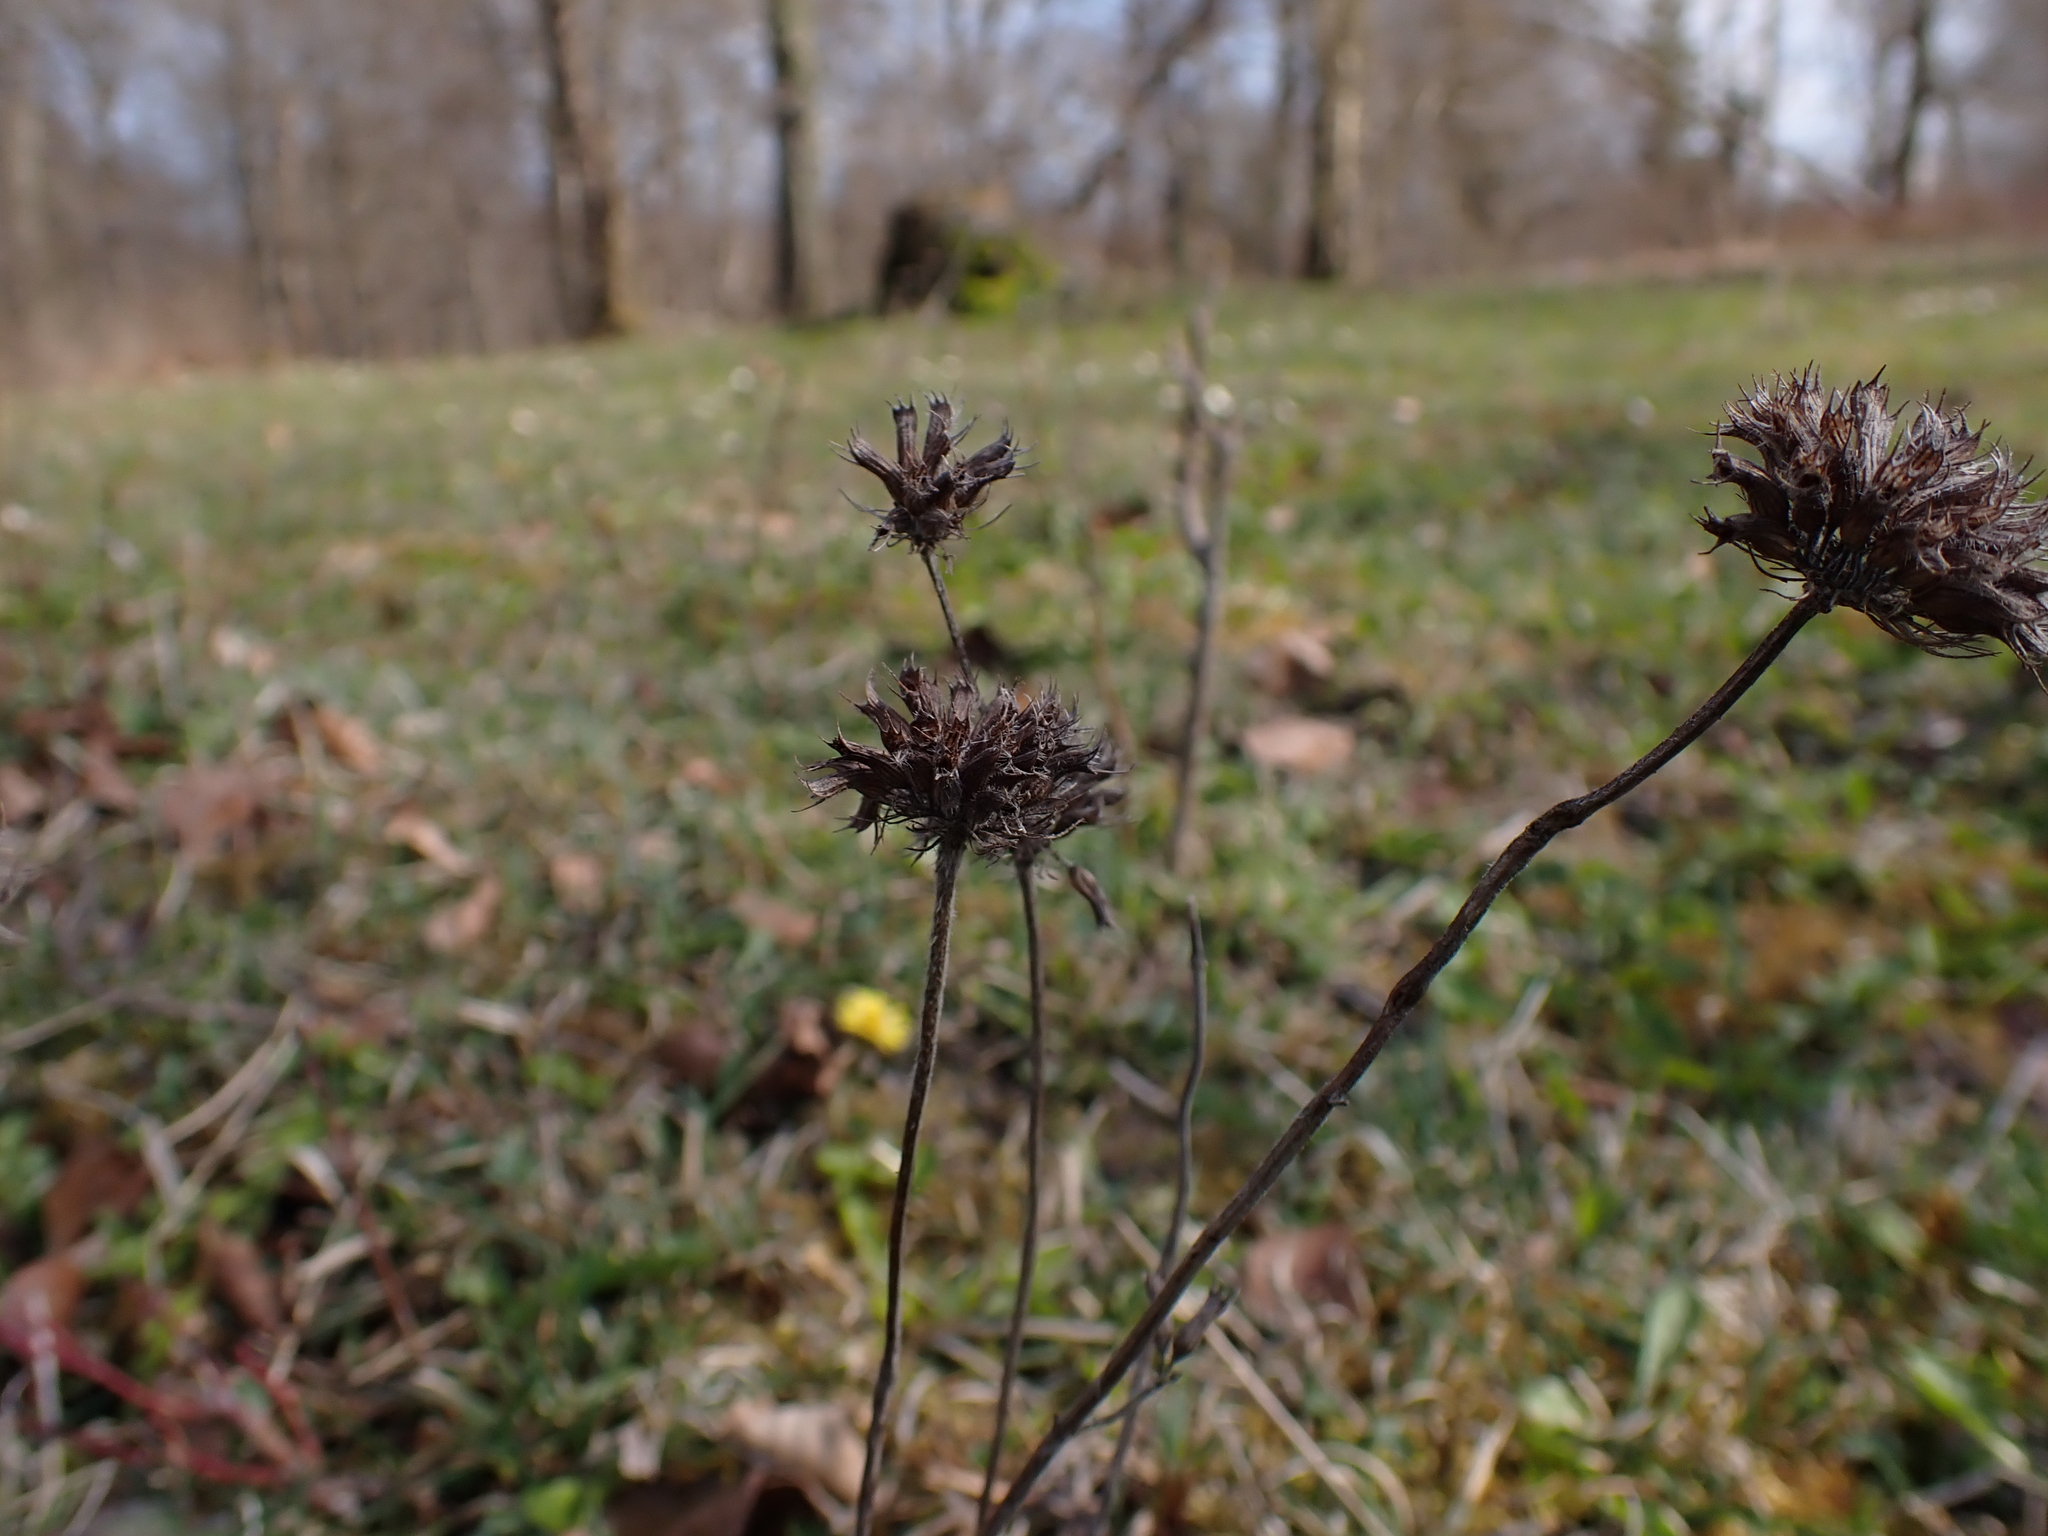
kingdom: Plantae
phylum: Tracheophyta
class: Magnoliopsida
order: Lamiales
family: Lamiaceae
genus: Clinopodium
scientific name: Clinopodium vulgare
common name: Wild basil
